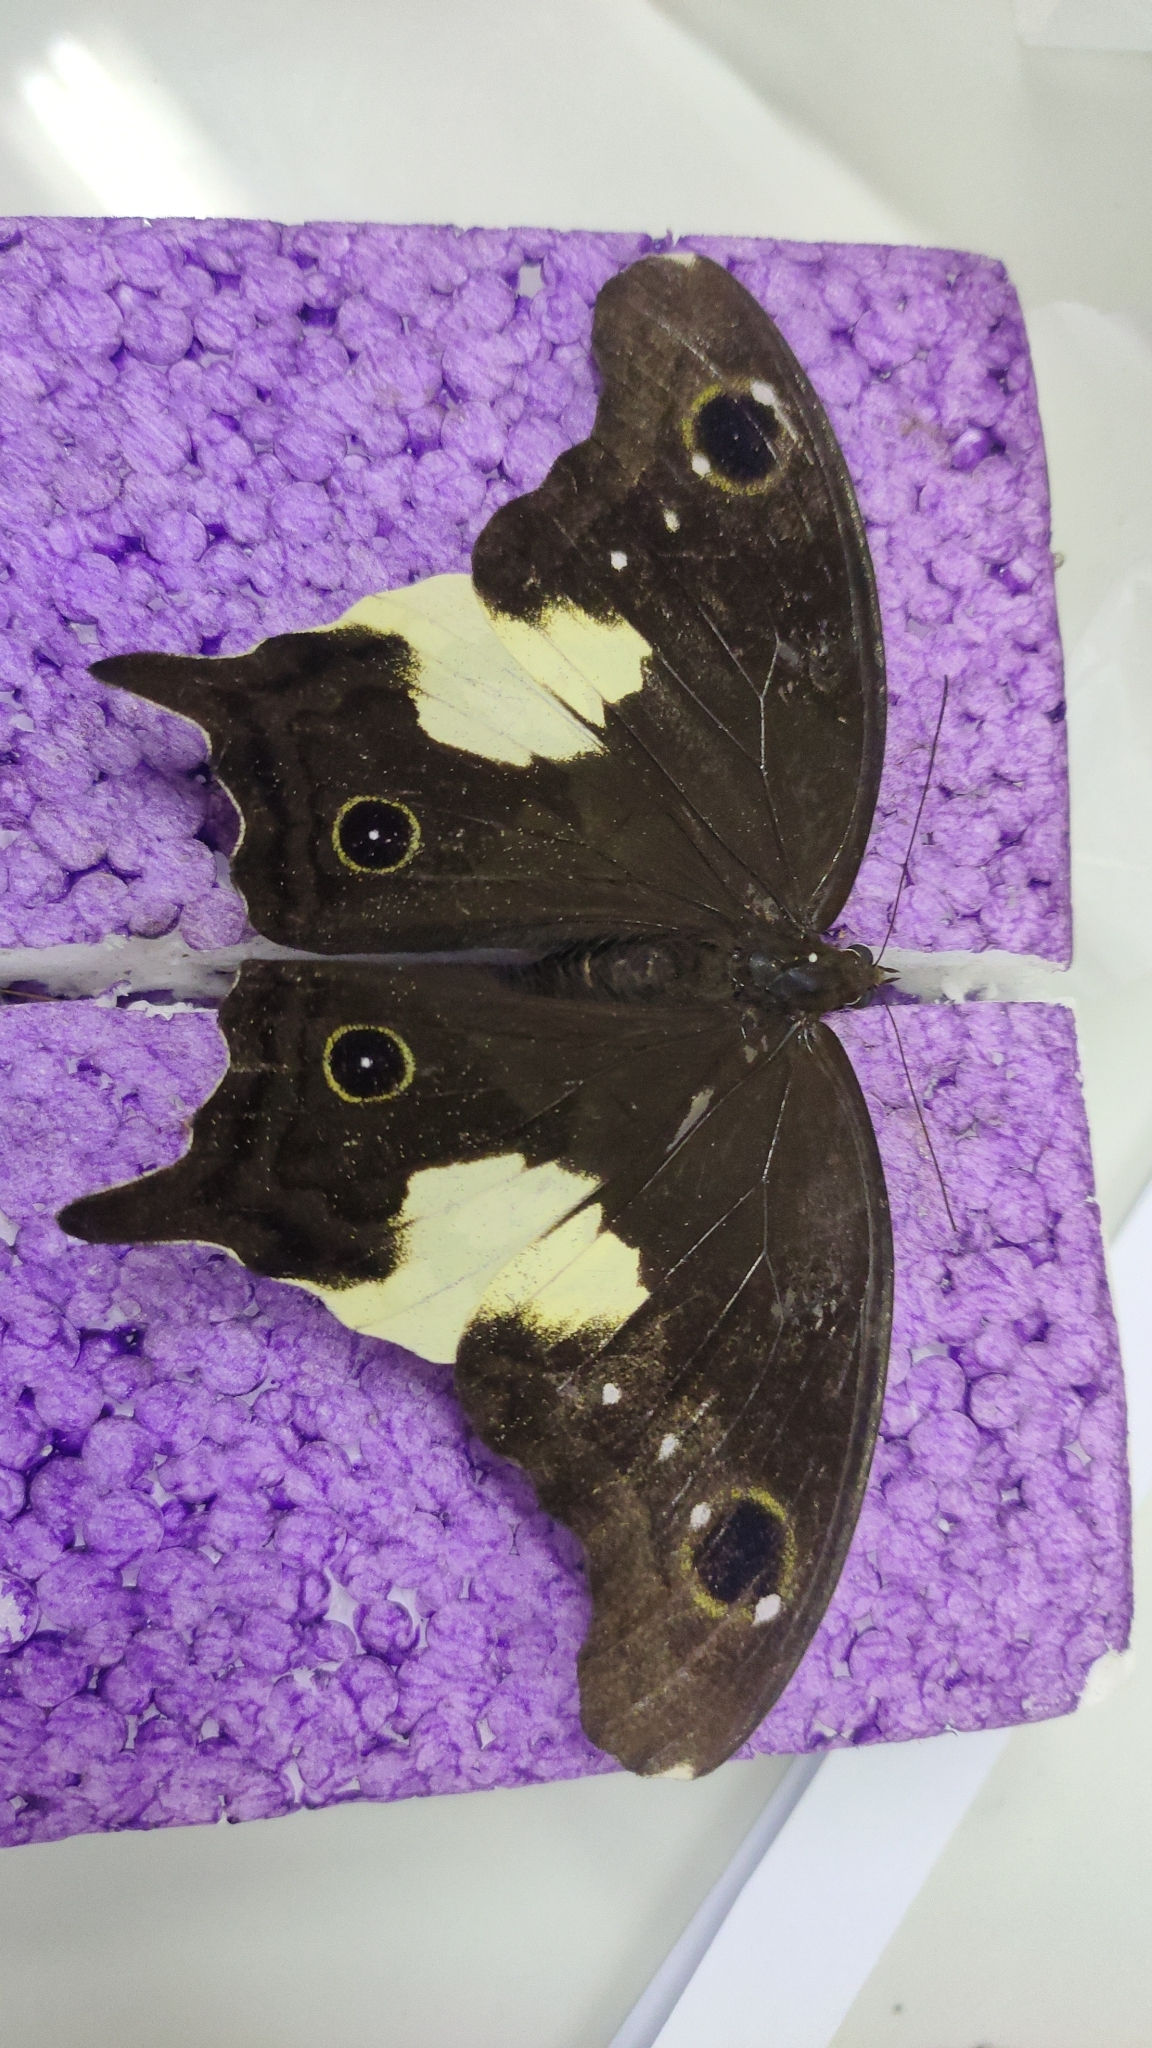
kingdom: Animalia
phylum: Arthropoda
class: Insecta
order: Lepidoptera
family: Nymphalidae
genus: Neorina
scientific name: Neorina lowii
